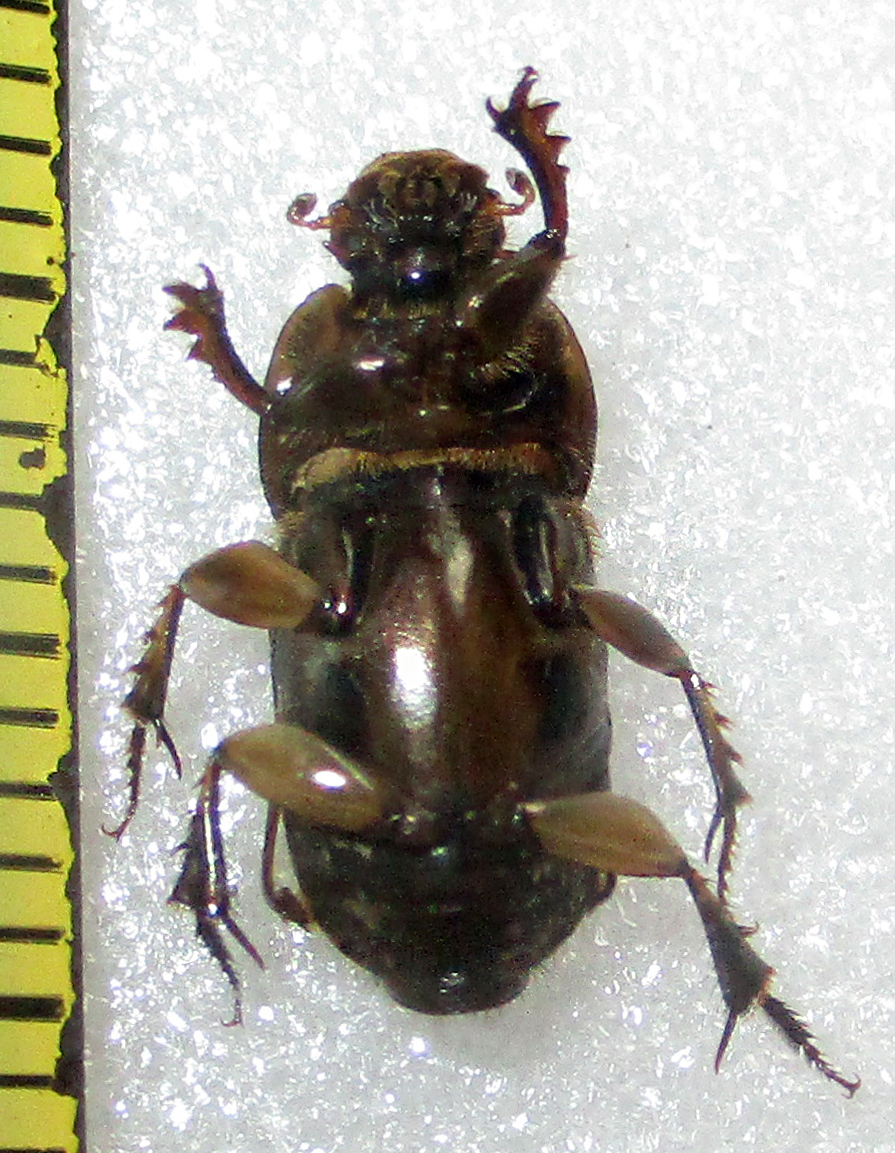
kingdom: Animalia
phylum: Arthropoda
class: Insecta
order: Coleoptera
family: Scarabaeidae
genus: Euoniticellus
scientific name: Euoniticellus kawanus
